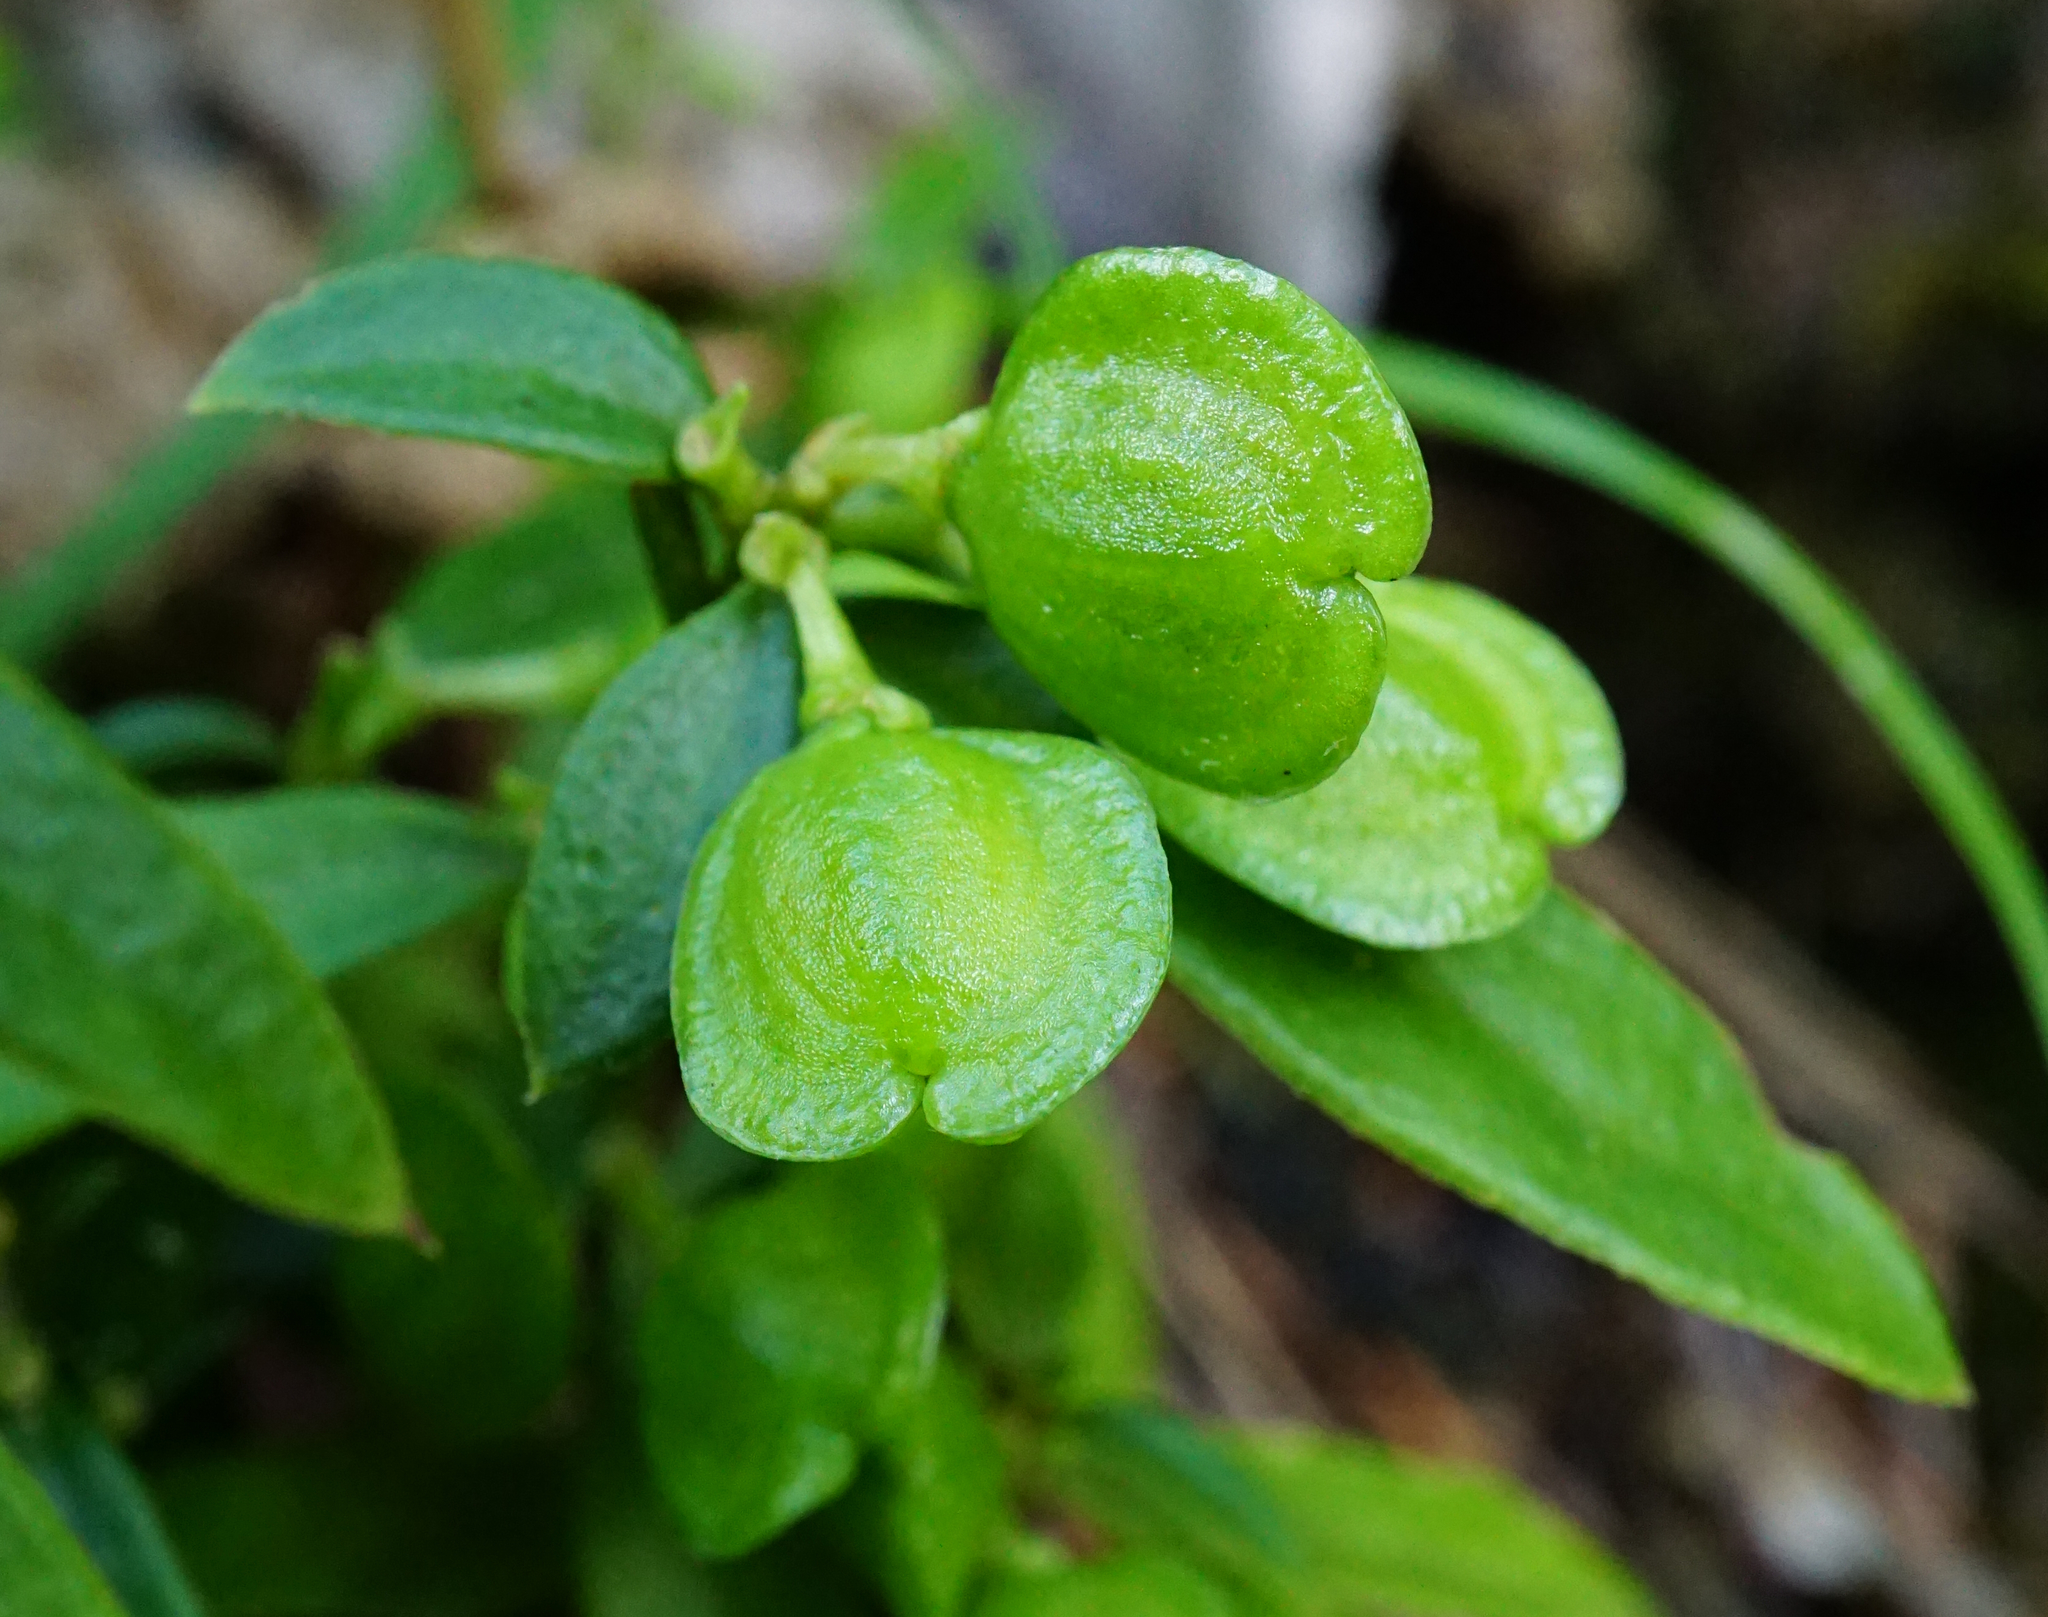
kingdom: Plantae
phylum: Tracheophyta
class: Magnoliopsida
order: Fabales
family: Polygalaceae
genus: Polygaloides
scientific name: Polygaloides chamaebuxus
